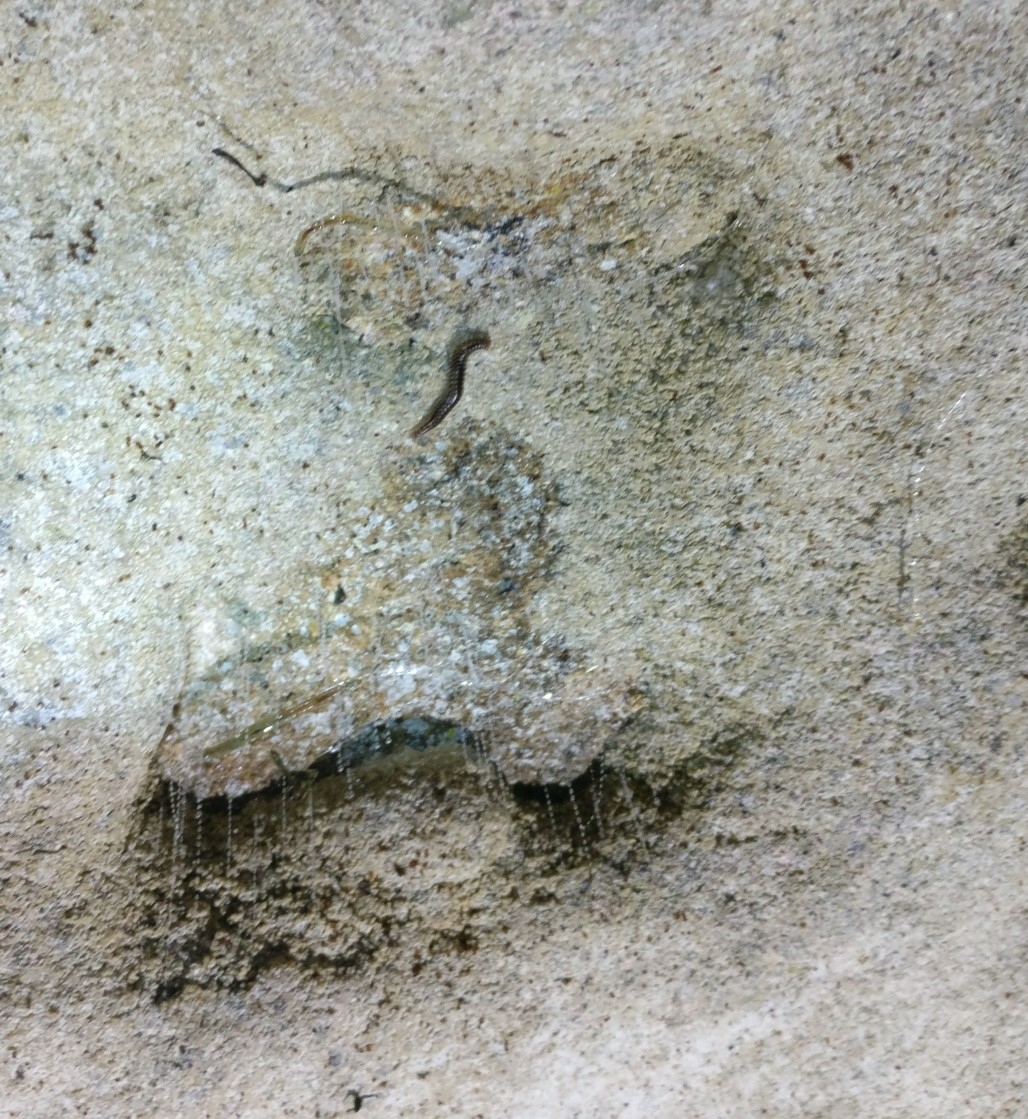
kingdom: Animalia
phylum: Arthropoda
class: Insecta
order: Diptera
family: Keroplatidae
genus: Arachnocampa
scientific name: Arachnocampa luminosa
